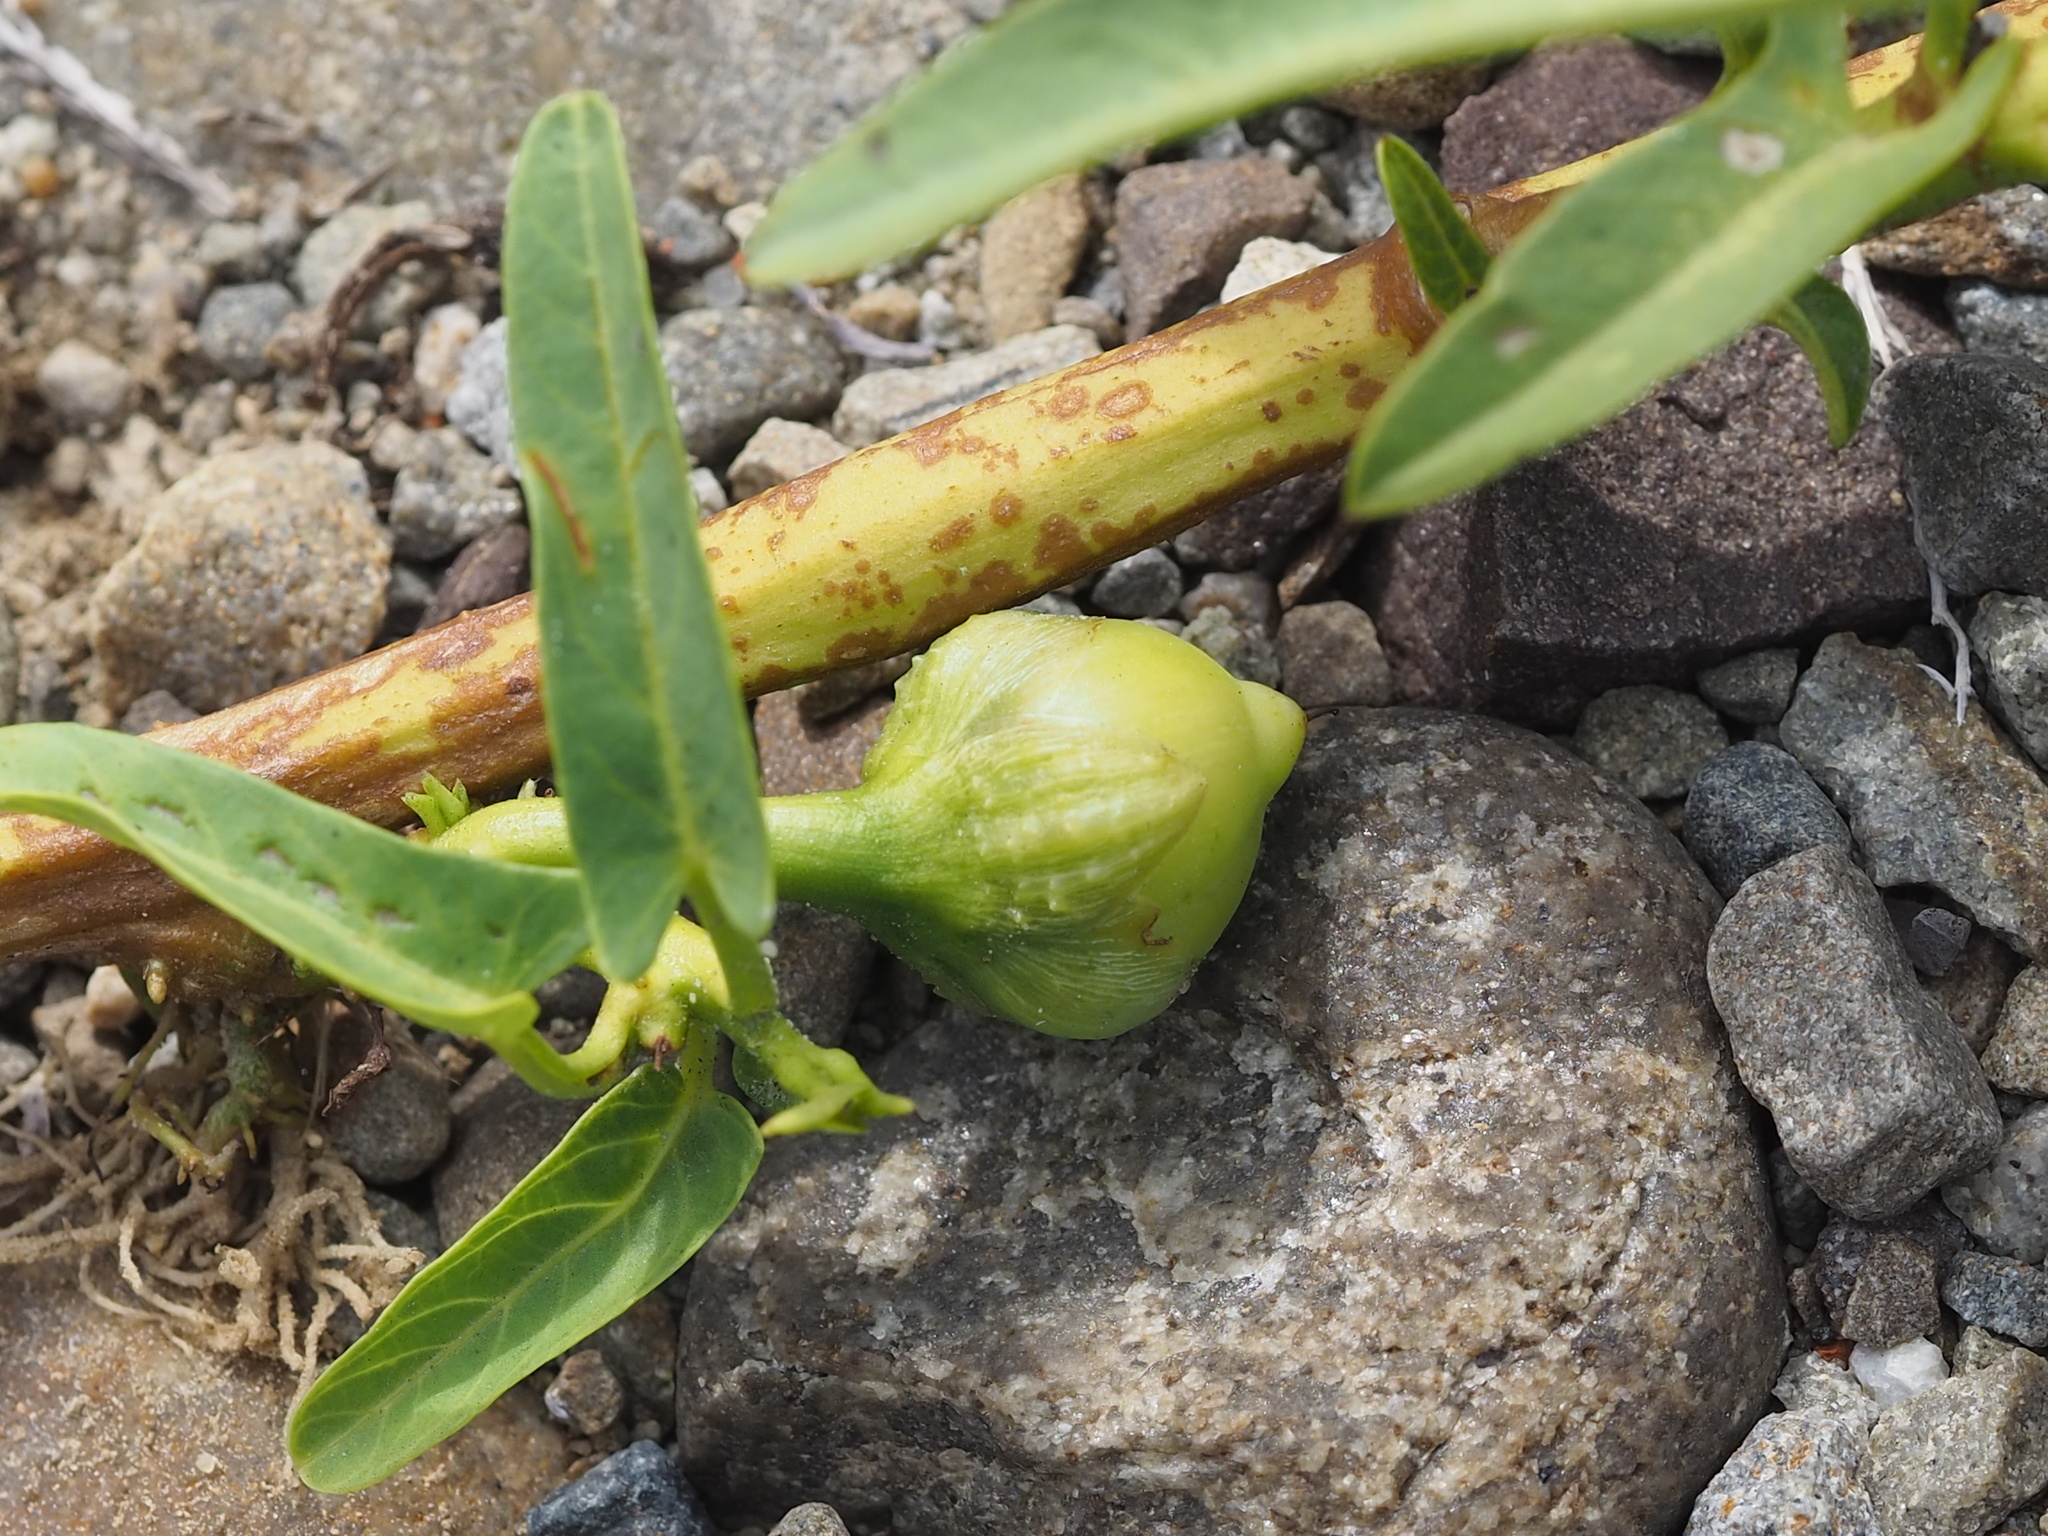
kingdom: Plantae
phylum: Tracheophyta
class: Magnoliopsida
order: Solanales
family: Convolvulaceae
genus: Ipomoea
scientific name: Ipomoea aquatica
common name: Swamp morning-glory
